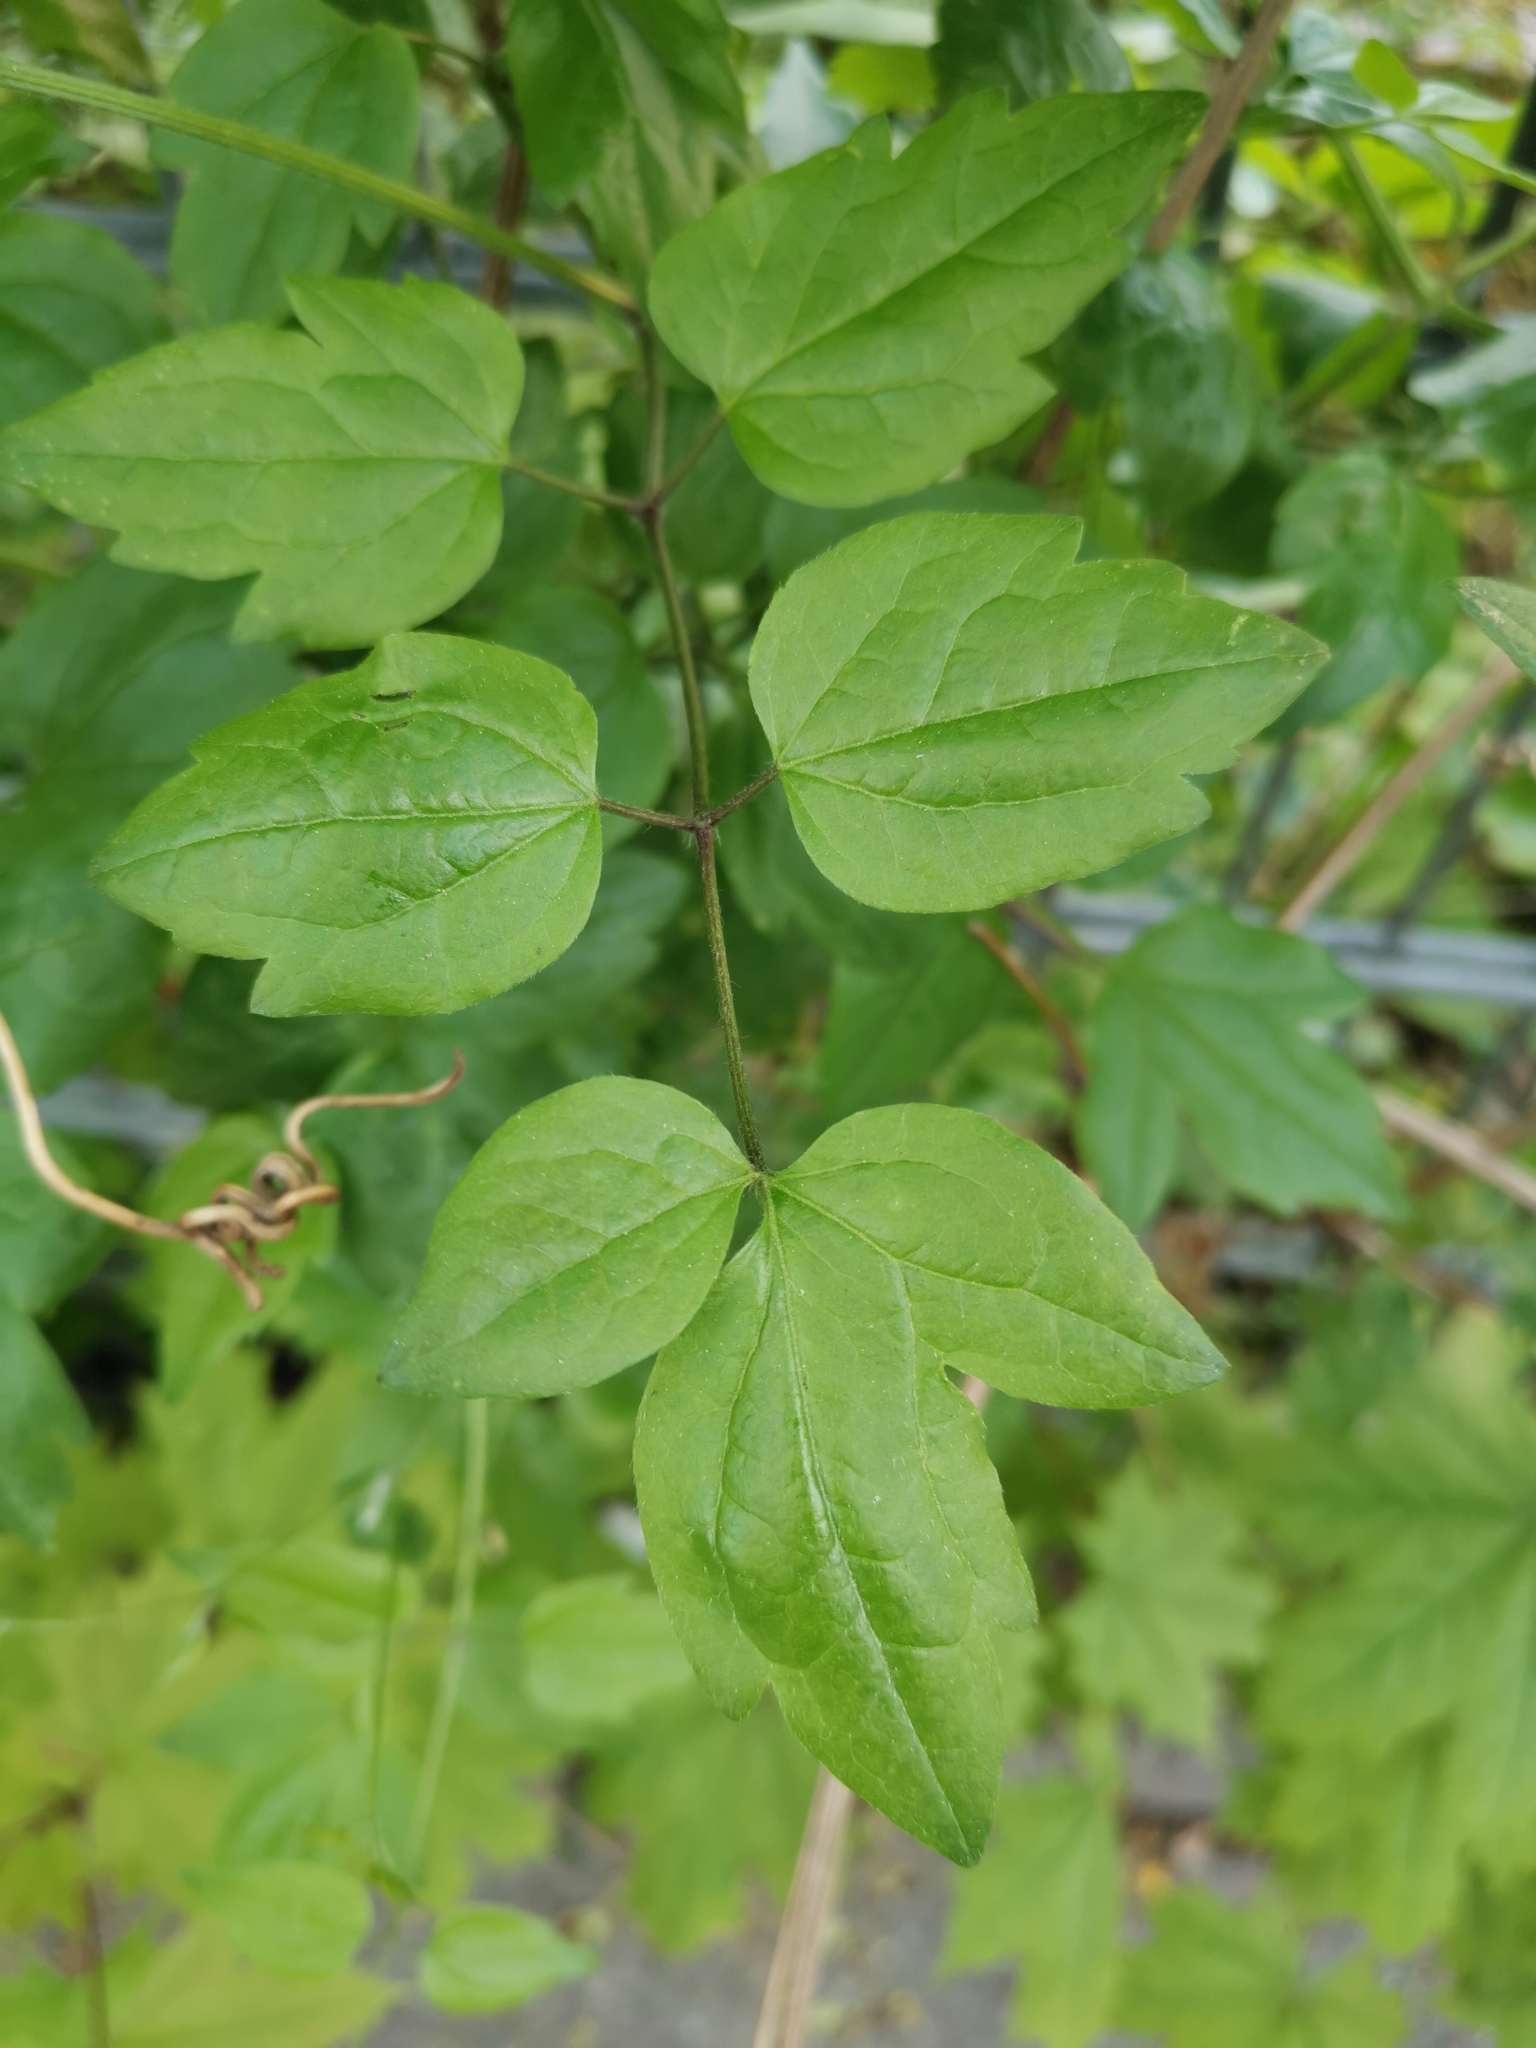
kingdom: Plantae
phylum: Tracheophyta
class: Magnoliopsida
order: Ranunculales
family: Ranunculaceae
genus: Clematis
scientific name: Clematis vitalba
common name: Evergreen clematis
